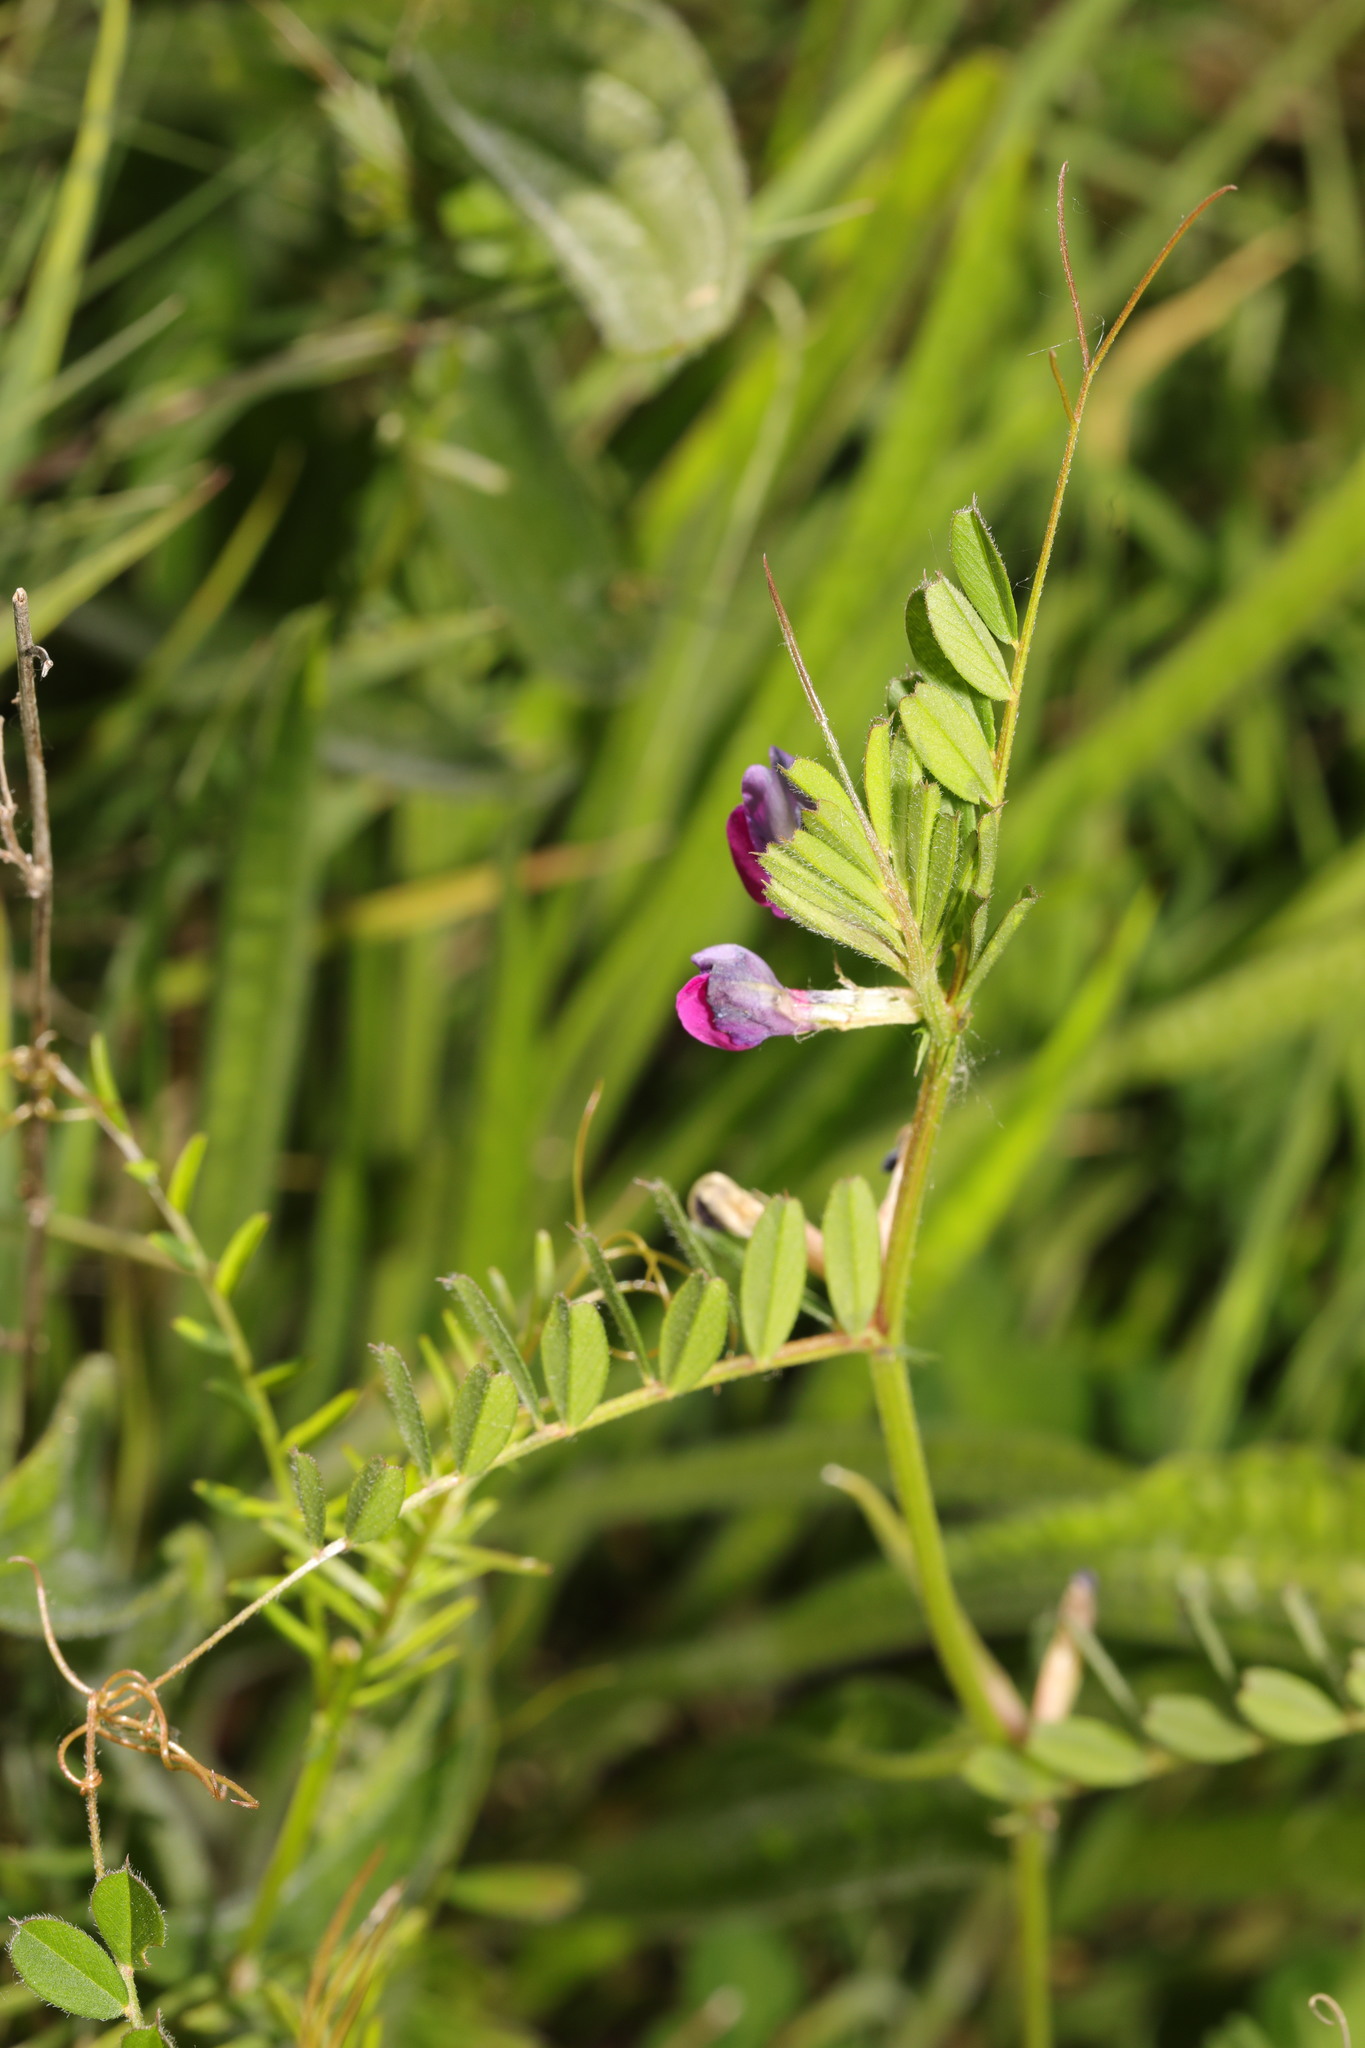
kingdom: Plantae
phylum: Tracheophyta
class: Magnoliopsida
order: Fabales
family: Fabaceae
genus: Vicia
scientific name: Vicia sativa
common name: Garden vetch
